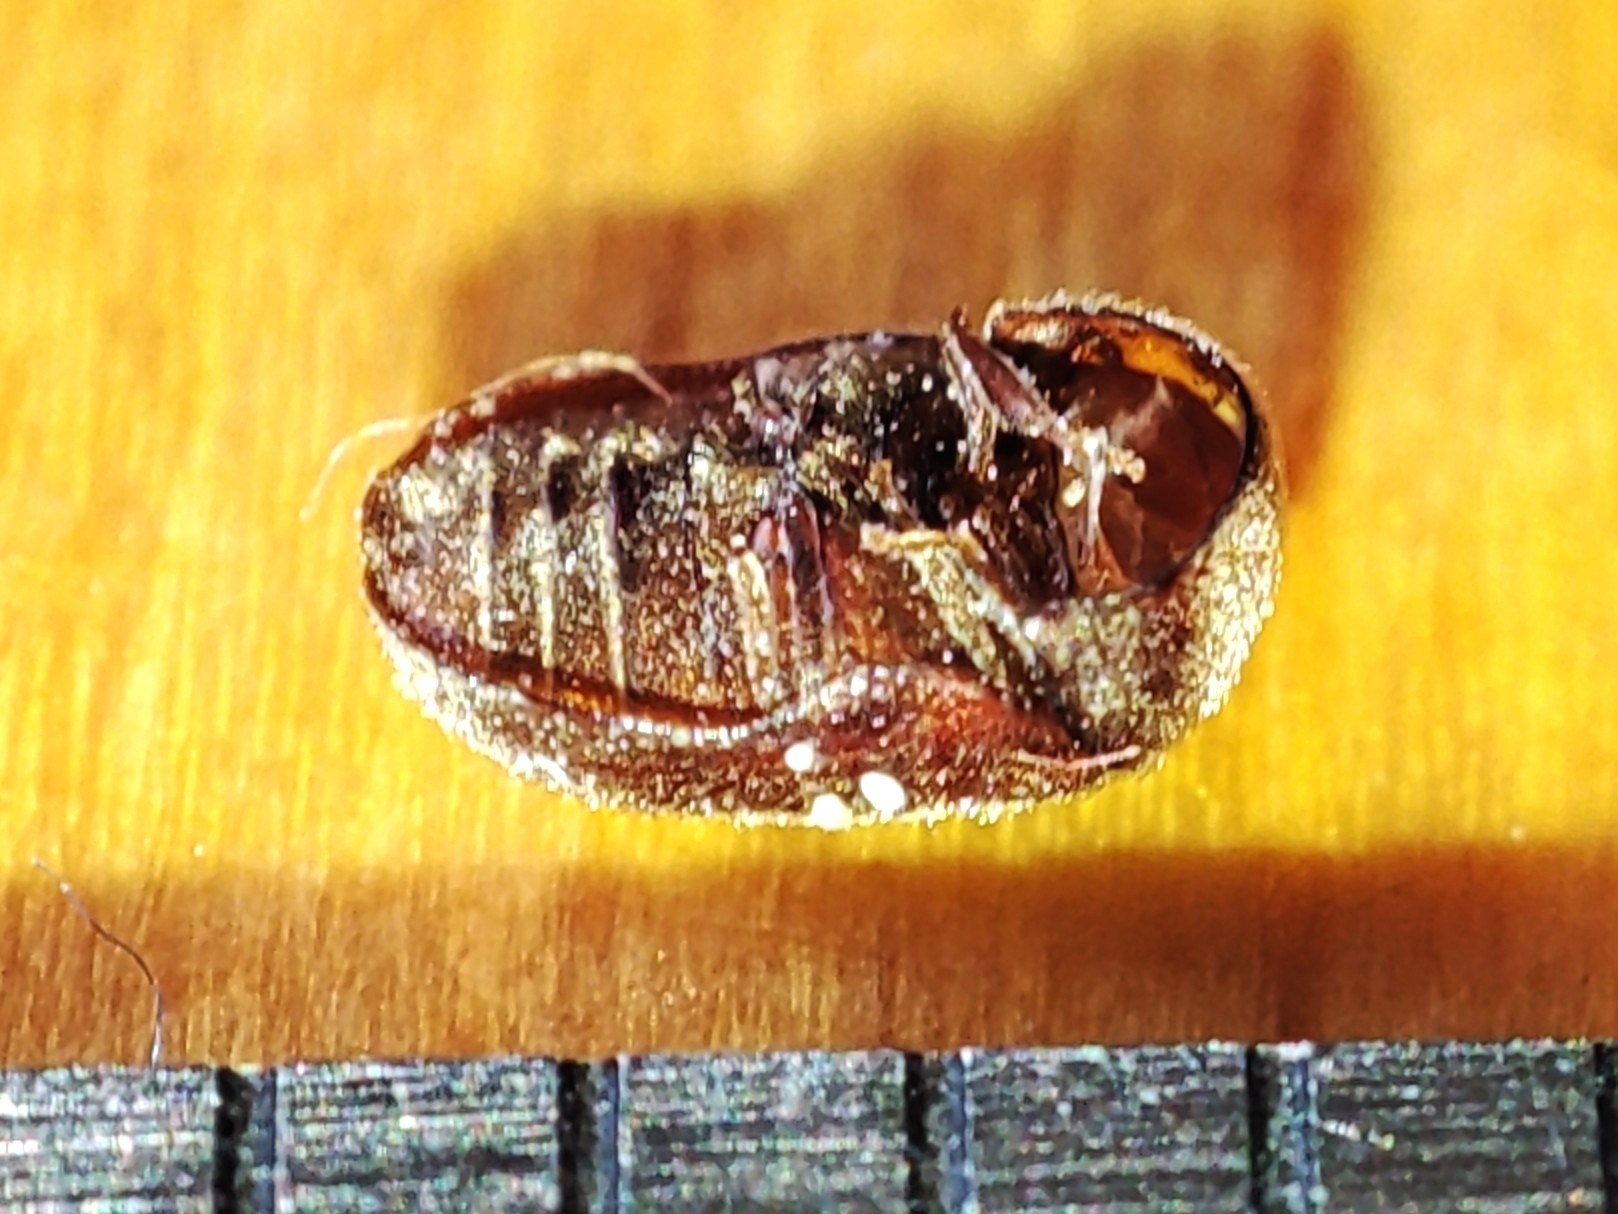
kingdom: Animalia
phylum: Arthropoda
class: Insecta
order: Coleoptera
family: Anobiidae
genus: Lasioderma
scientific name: Lasioderma serricorne
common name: Cigarette beetle
